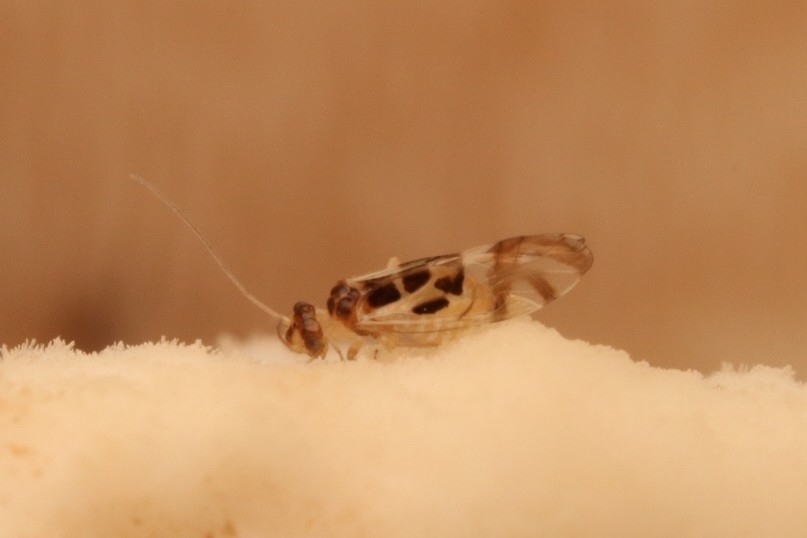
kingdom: Animalia
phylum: Arthropoda
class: Insecta
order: Psocodea
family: Stenopsocidae
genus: Graphopsocus
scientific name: Graphopsocus cruciatus
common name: Lizard bark louse
